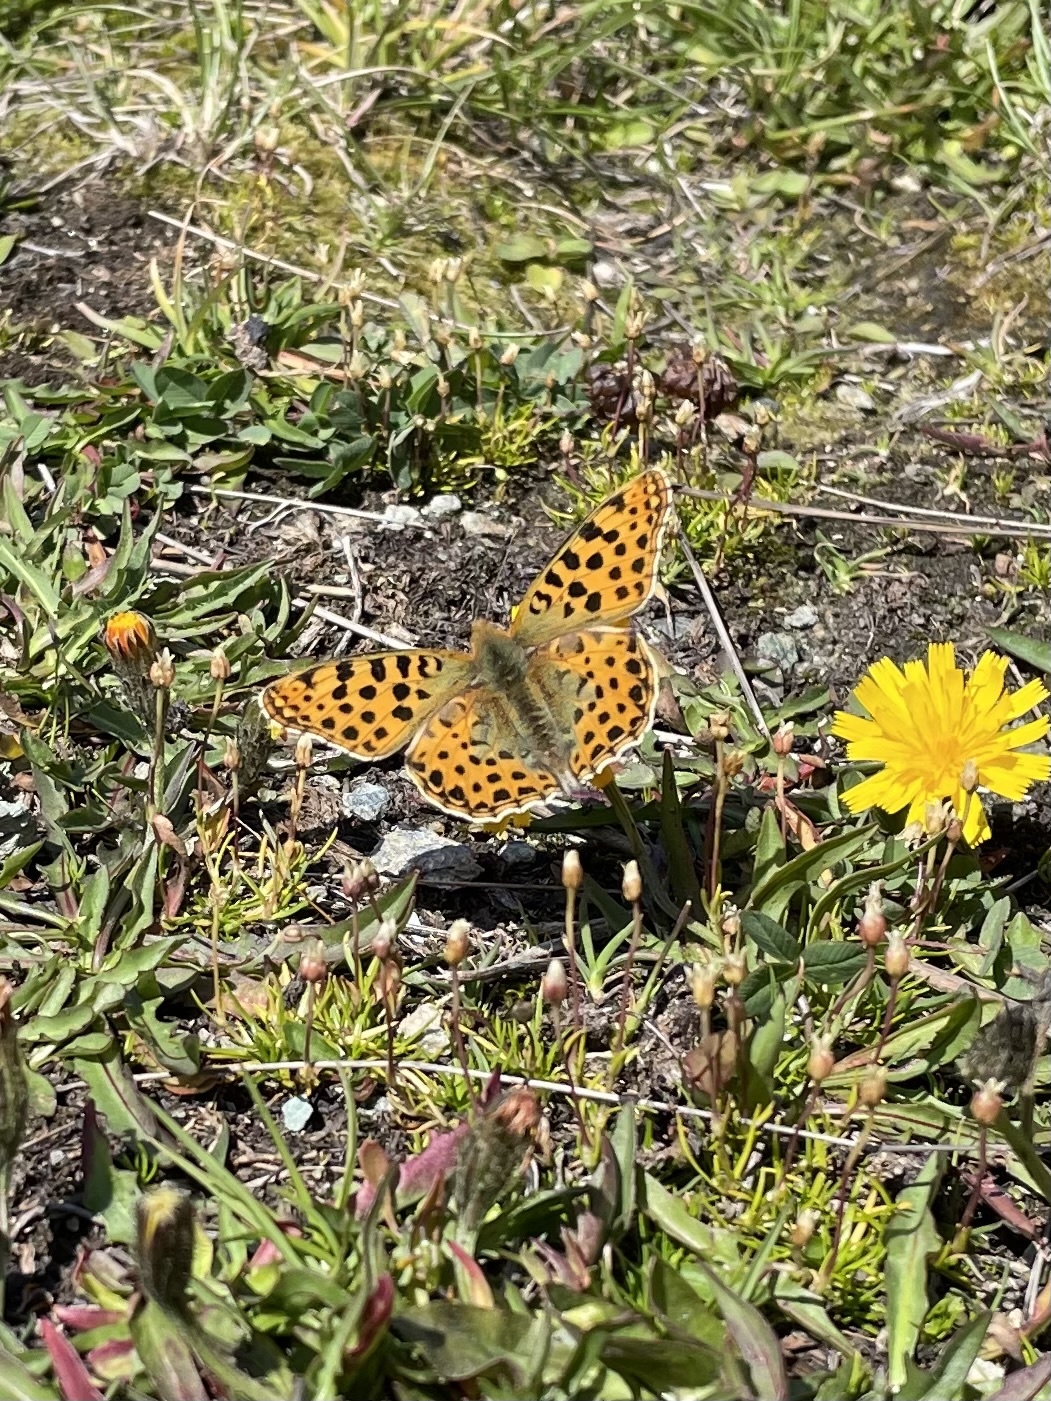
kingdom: Animalia
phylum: Arthropoda
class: Insecta
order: Lepidoptera
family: Nymphalidae
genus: Issoria
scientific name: Issoria lathonia
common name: Queen of spain fritillary
